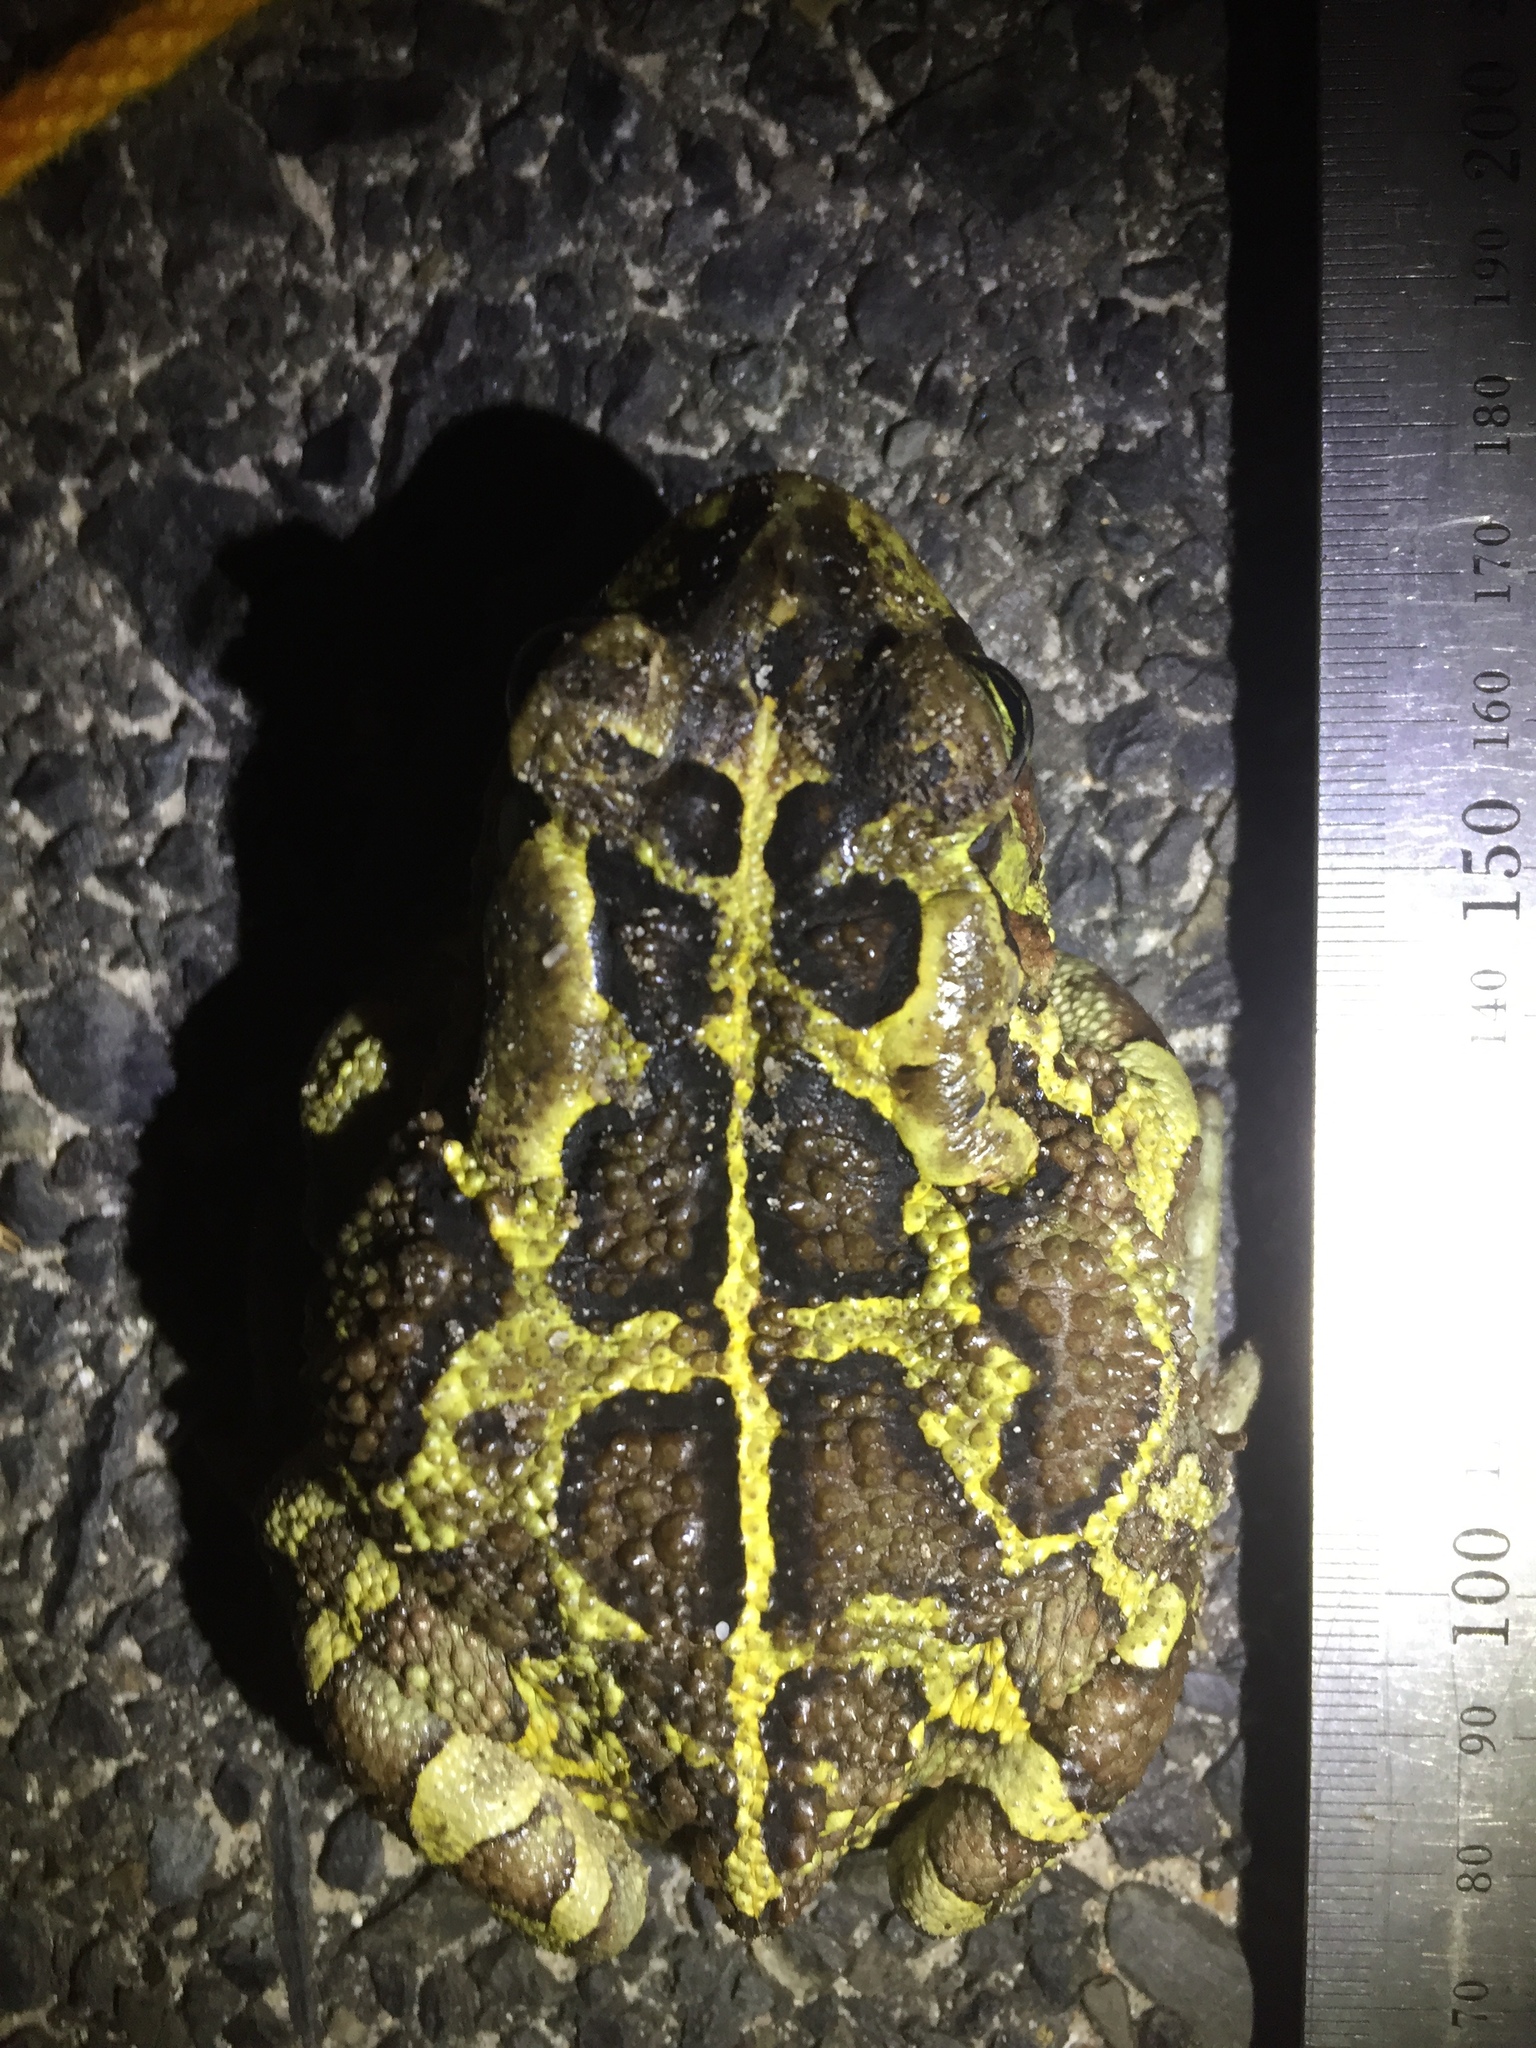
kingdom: Animalia
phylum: Chordata
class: Amphibia
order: Anura
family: Bufonidae
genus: Sclerophrys
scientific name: Sclerophrys pantherina
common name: Panther toad
